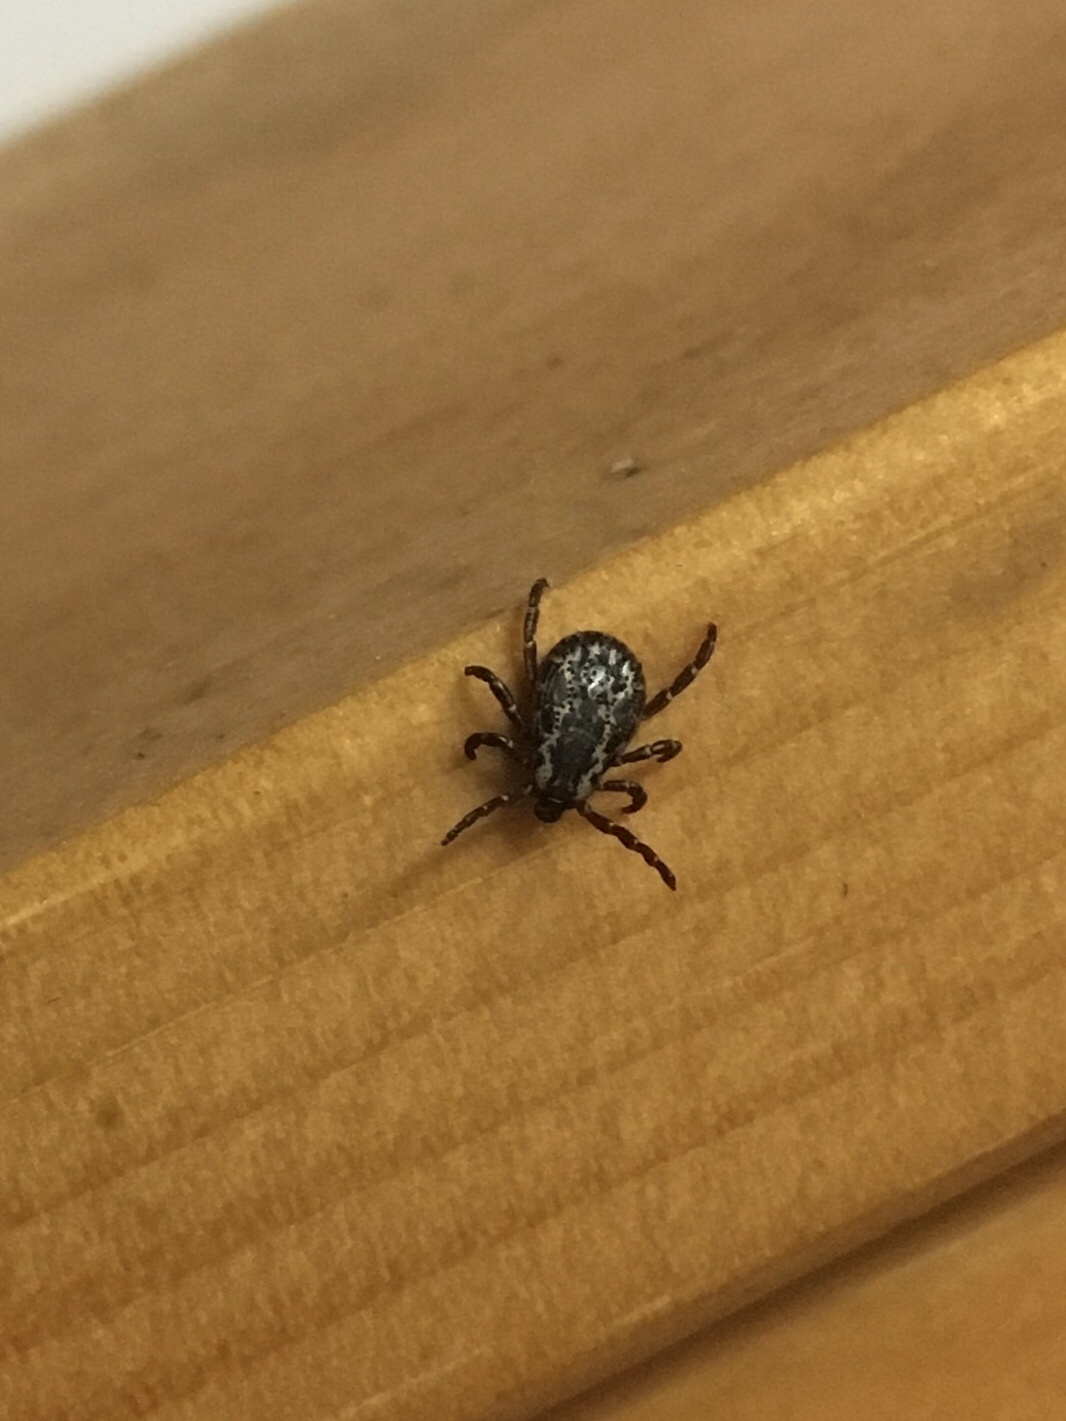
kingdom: Animalia
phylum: Arthropoda
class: Arachnida
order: Ixodida
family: Ixodidae
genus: Dermacentor
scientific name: Dermacentor variabilis
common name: American dog tick
